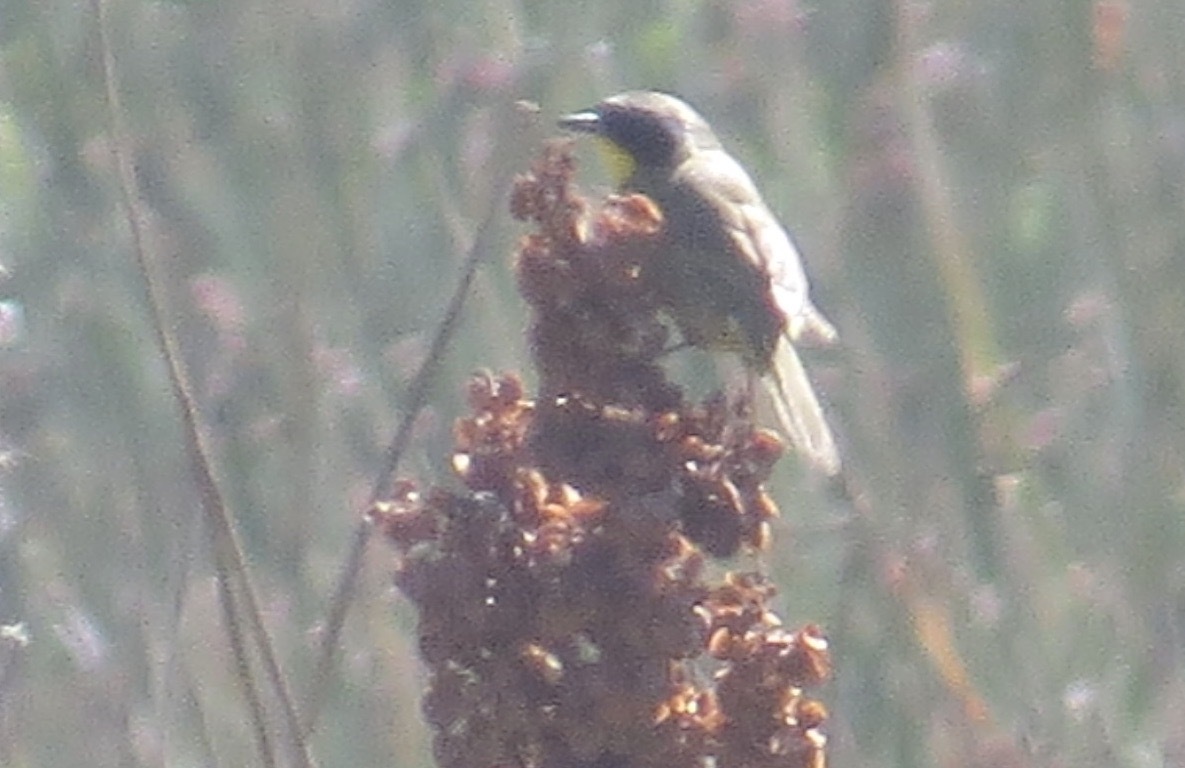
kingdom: Animalia
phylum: Chordata
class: Aves
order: Passeriformes
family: Parulidae
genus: Geothlypis
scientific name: Geothlypis trichas
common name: Common yellowthroat
